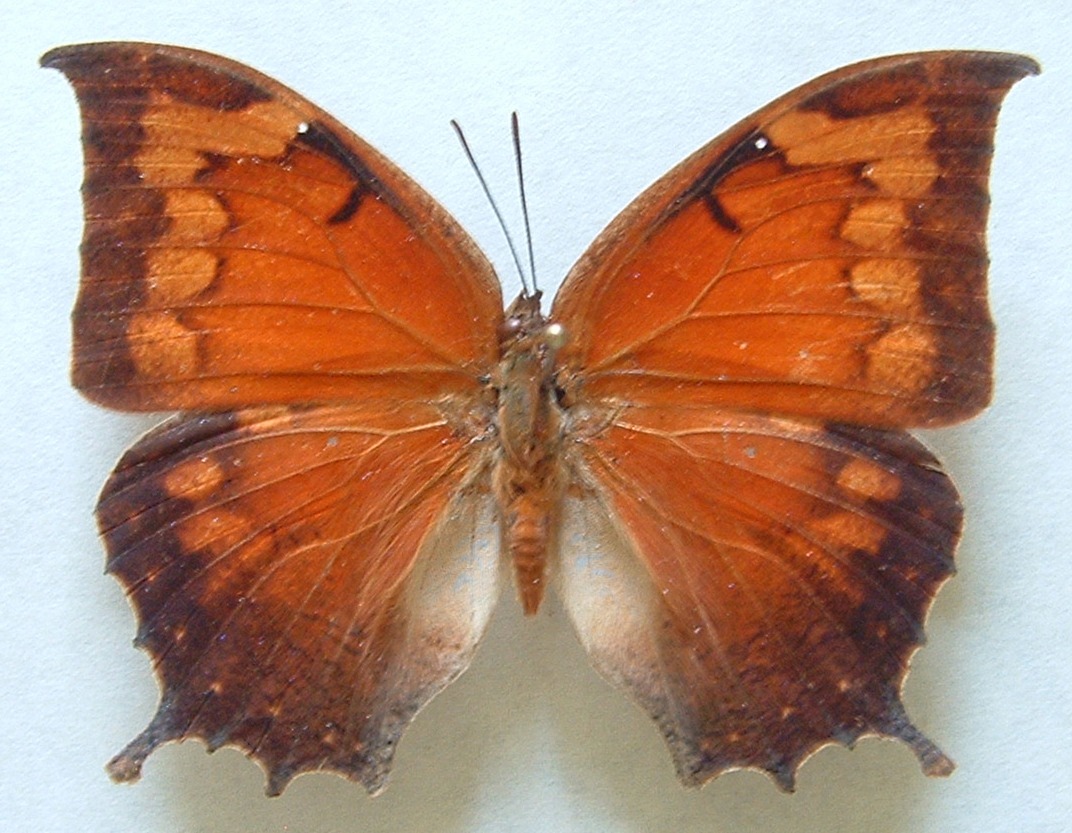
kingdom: Animalia
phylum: Arthropoda
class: Insecta
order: Lepidoptera
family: Nymphalidae
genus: Anaea
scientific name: Anaea aidea
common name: Tropical leafwing
